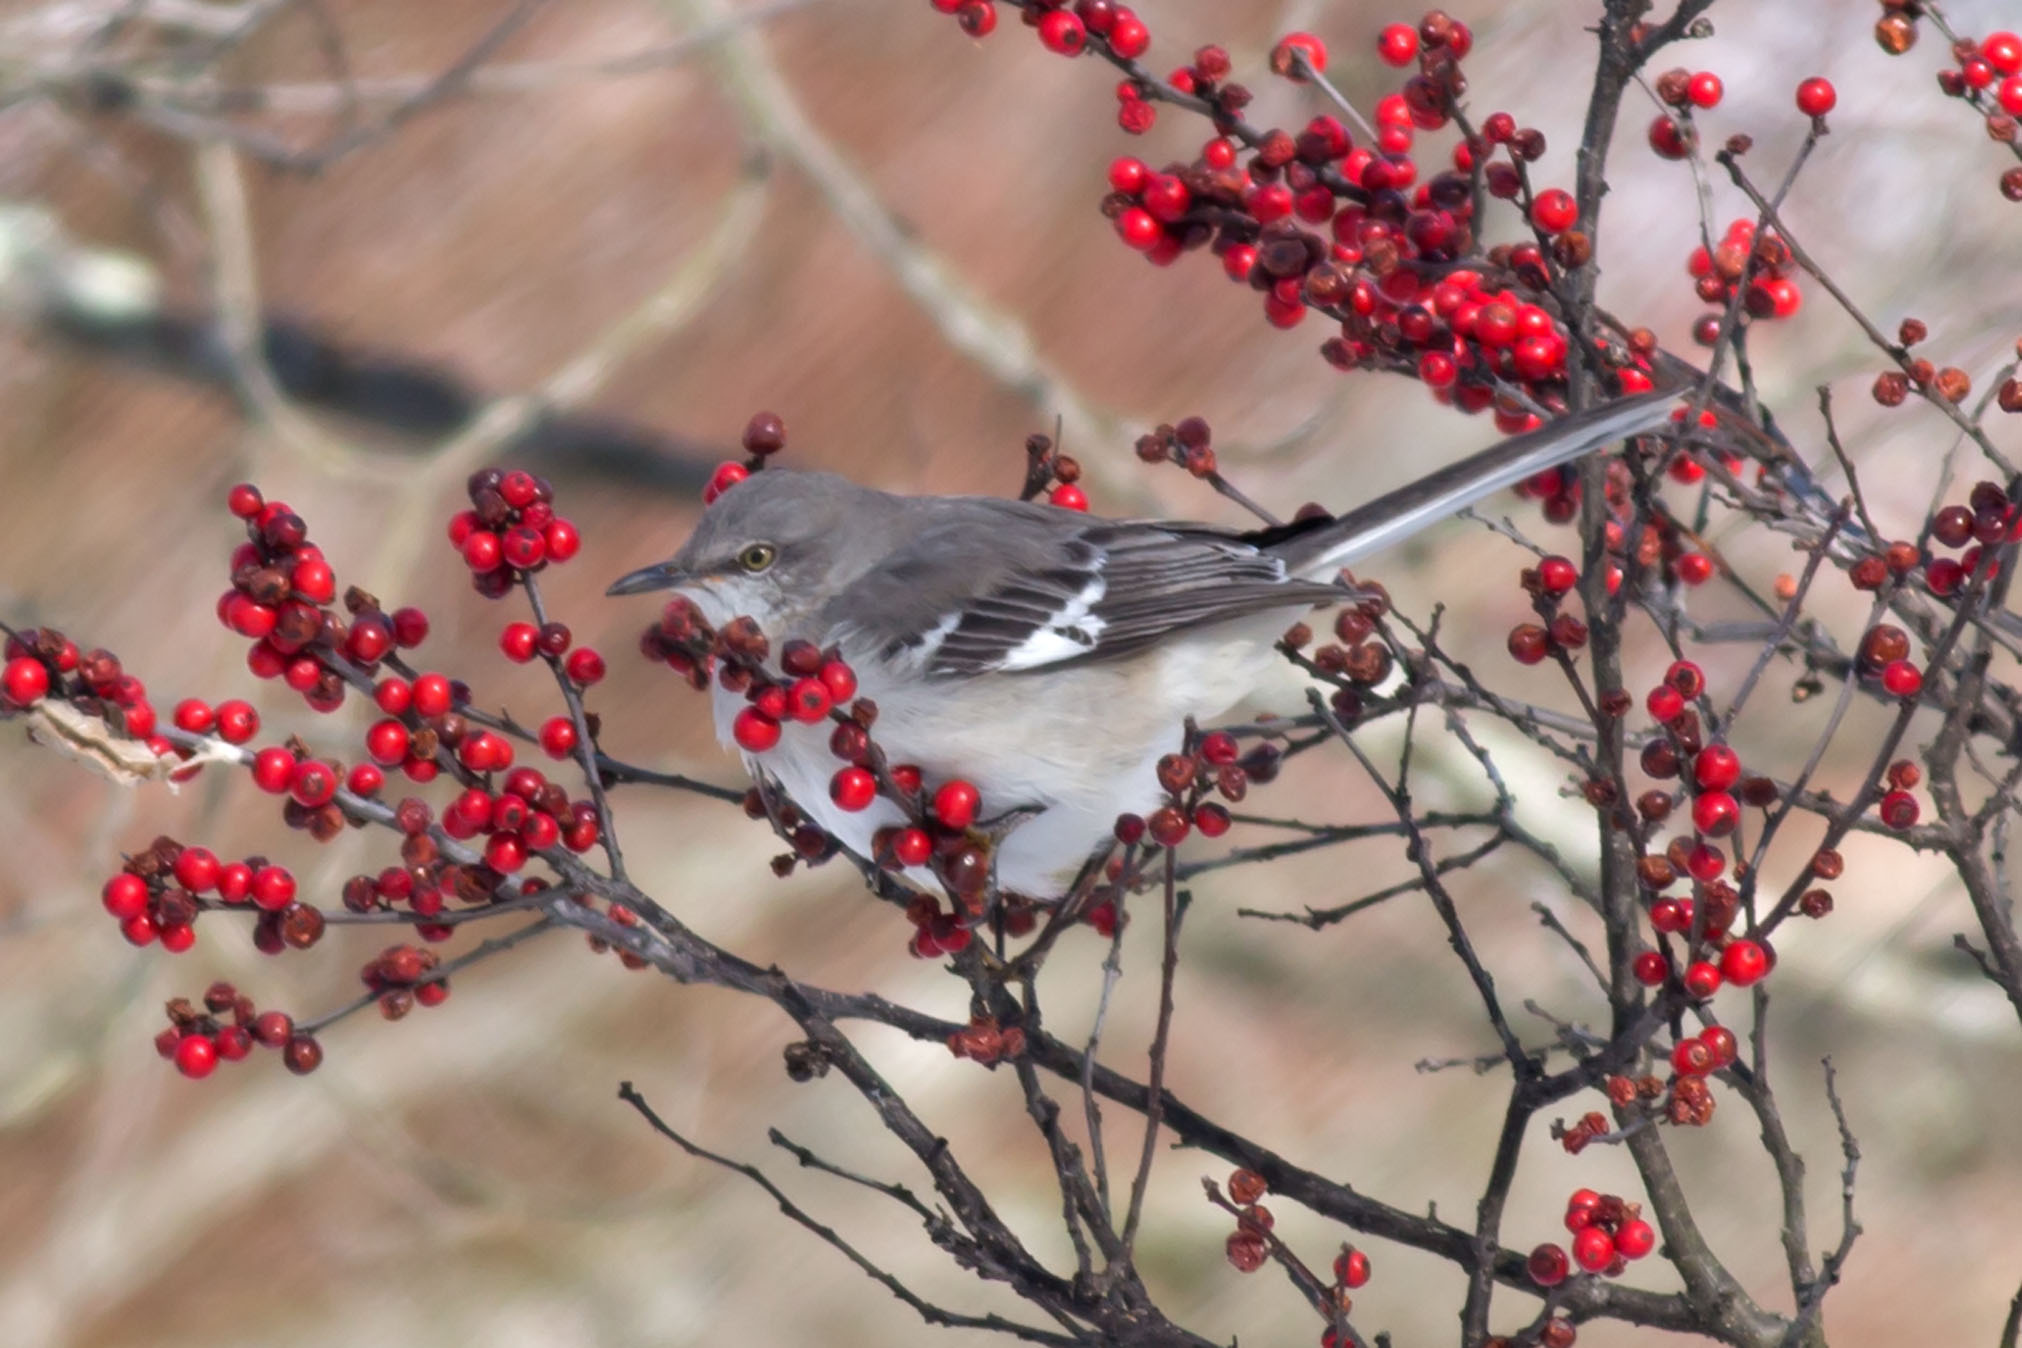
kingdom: Animalia
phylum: Chordata
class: Aves
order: Passeriformes
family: Mimidae
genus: Mimus
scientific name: Mimus polyglottos
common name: Northern mockingbird
